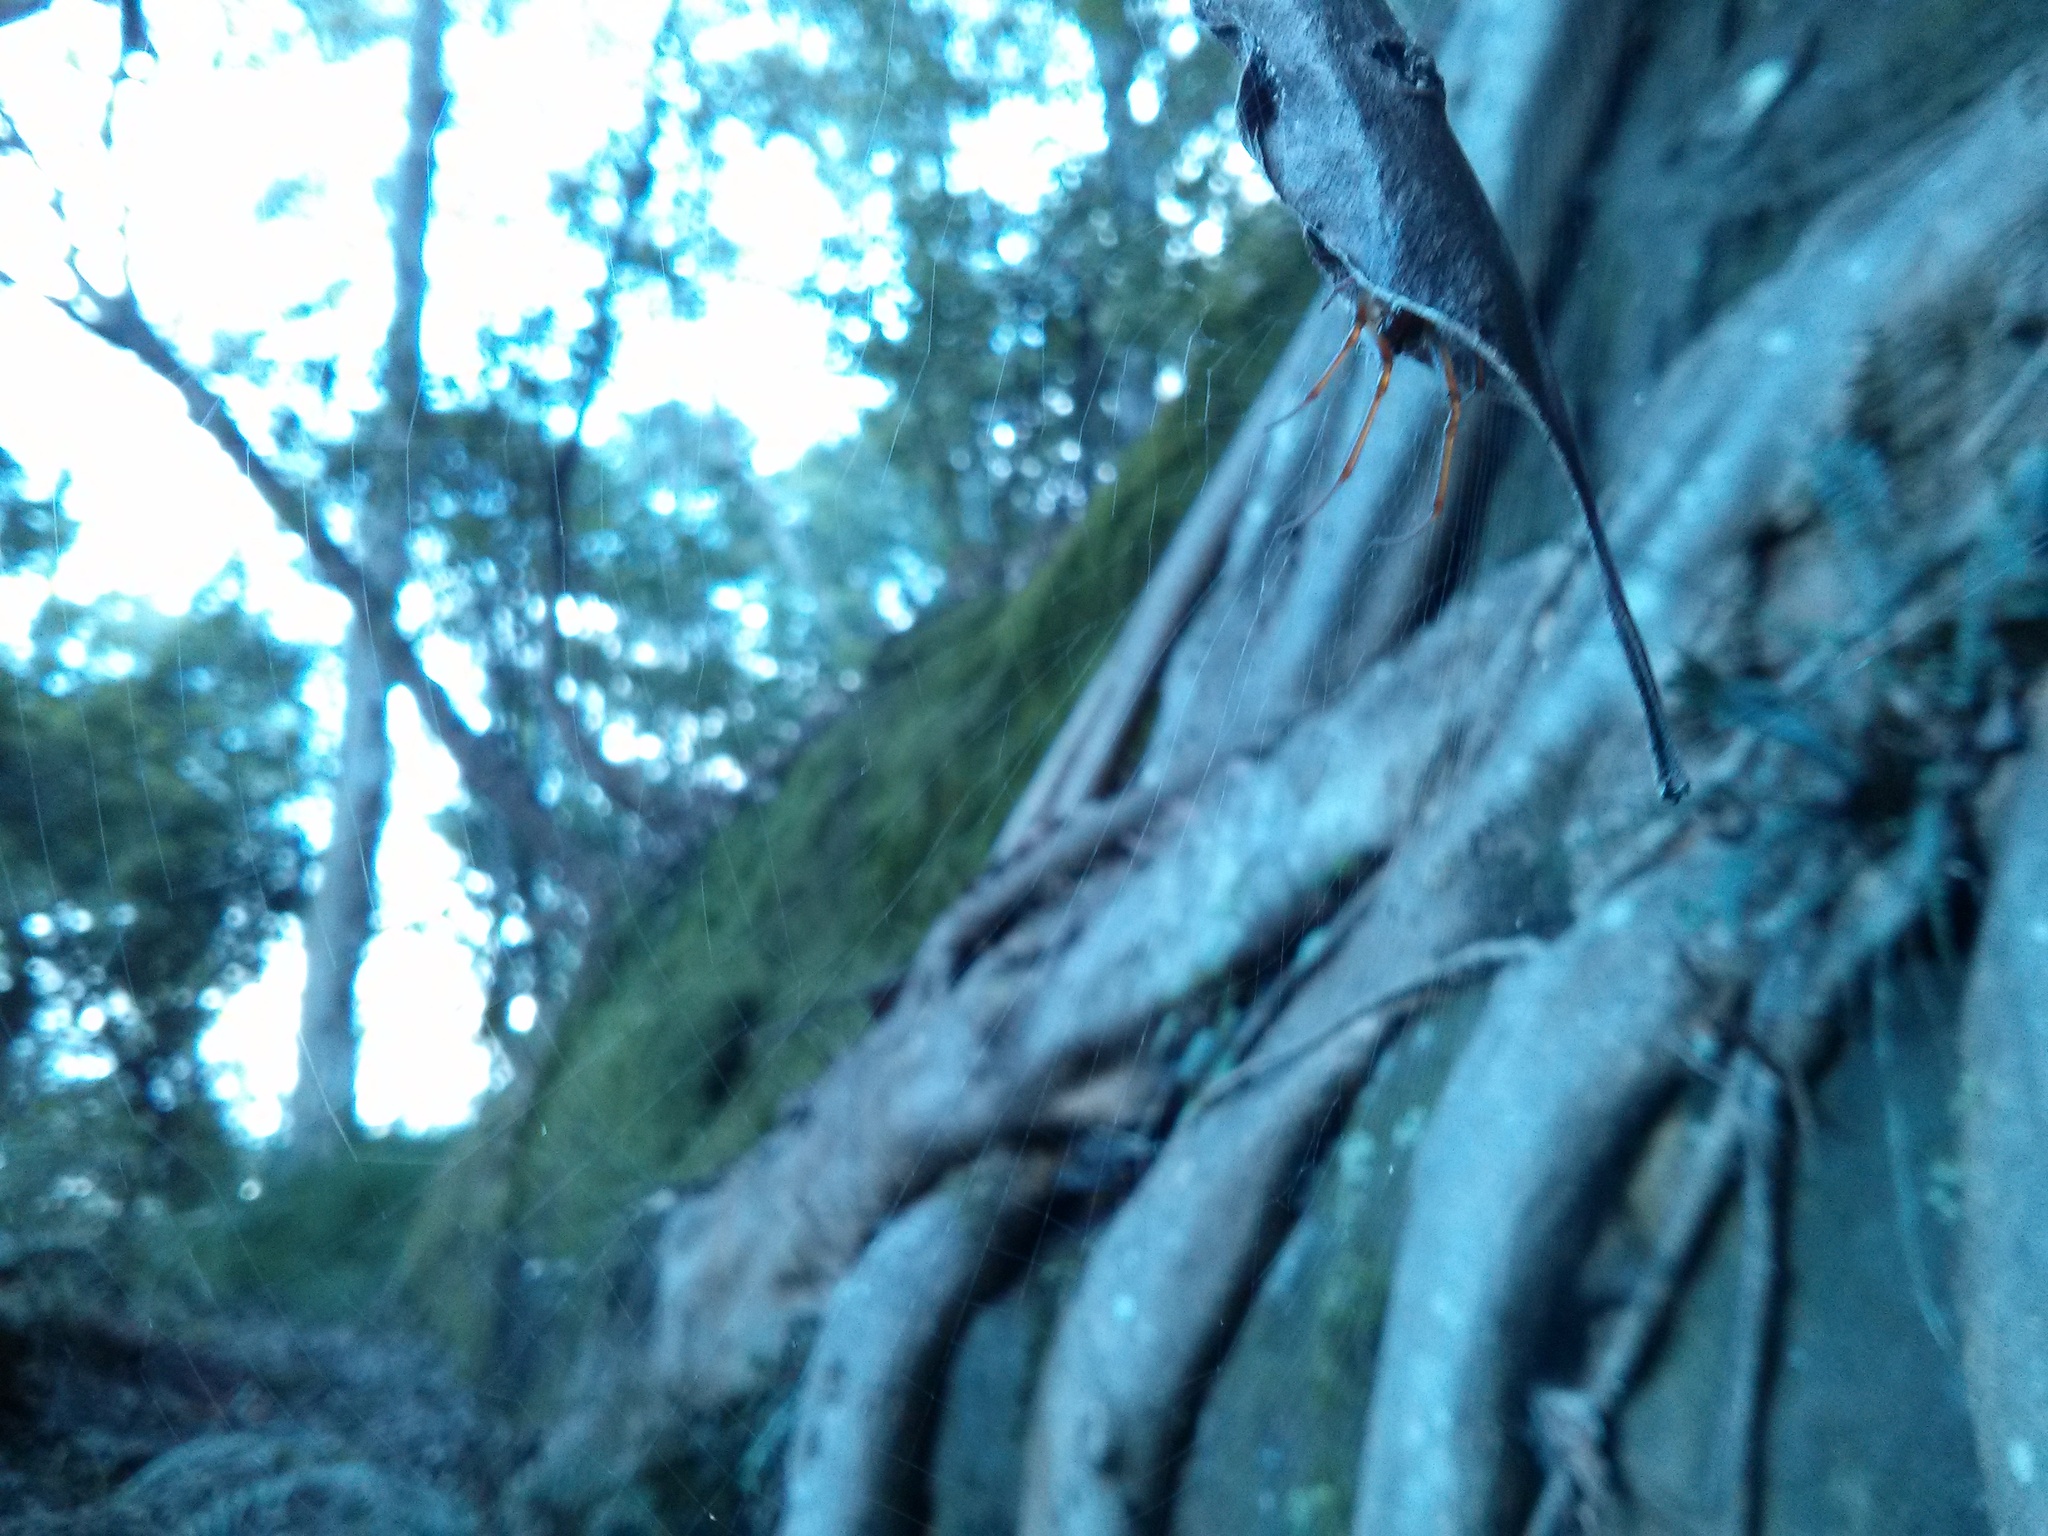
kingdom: Animalia
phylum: Arthropoda
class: Arachnida
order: Araneae
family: Araneidae
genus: Phonognatha
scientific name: Phonognatha graeffei
